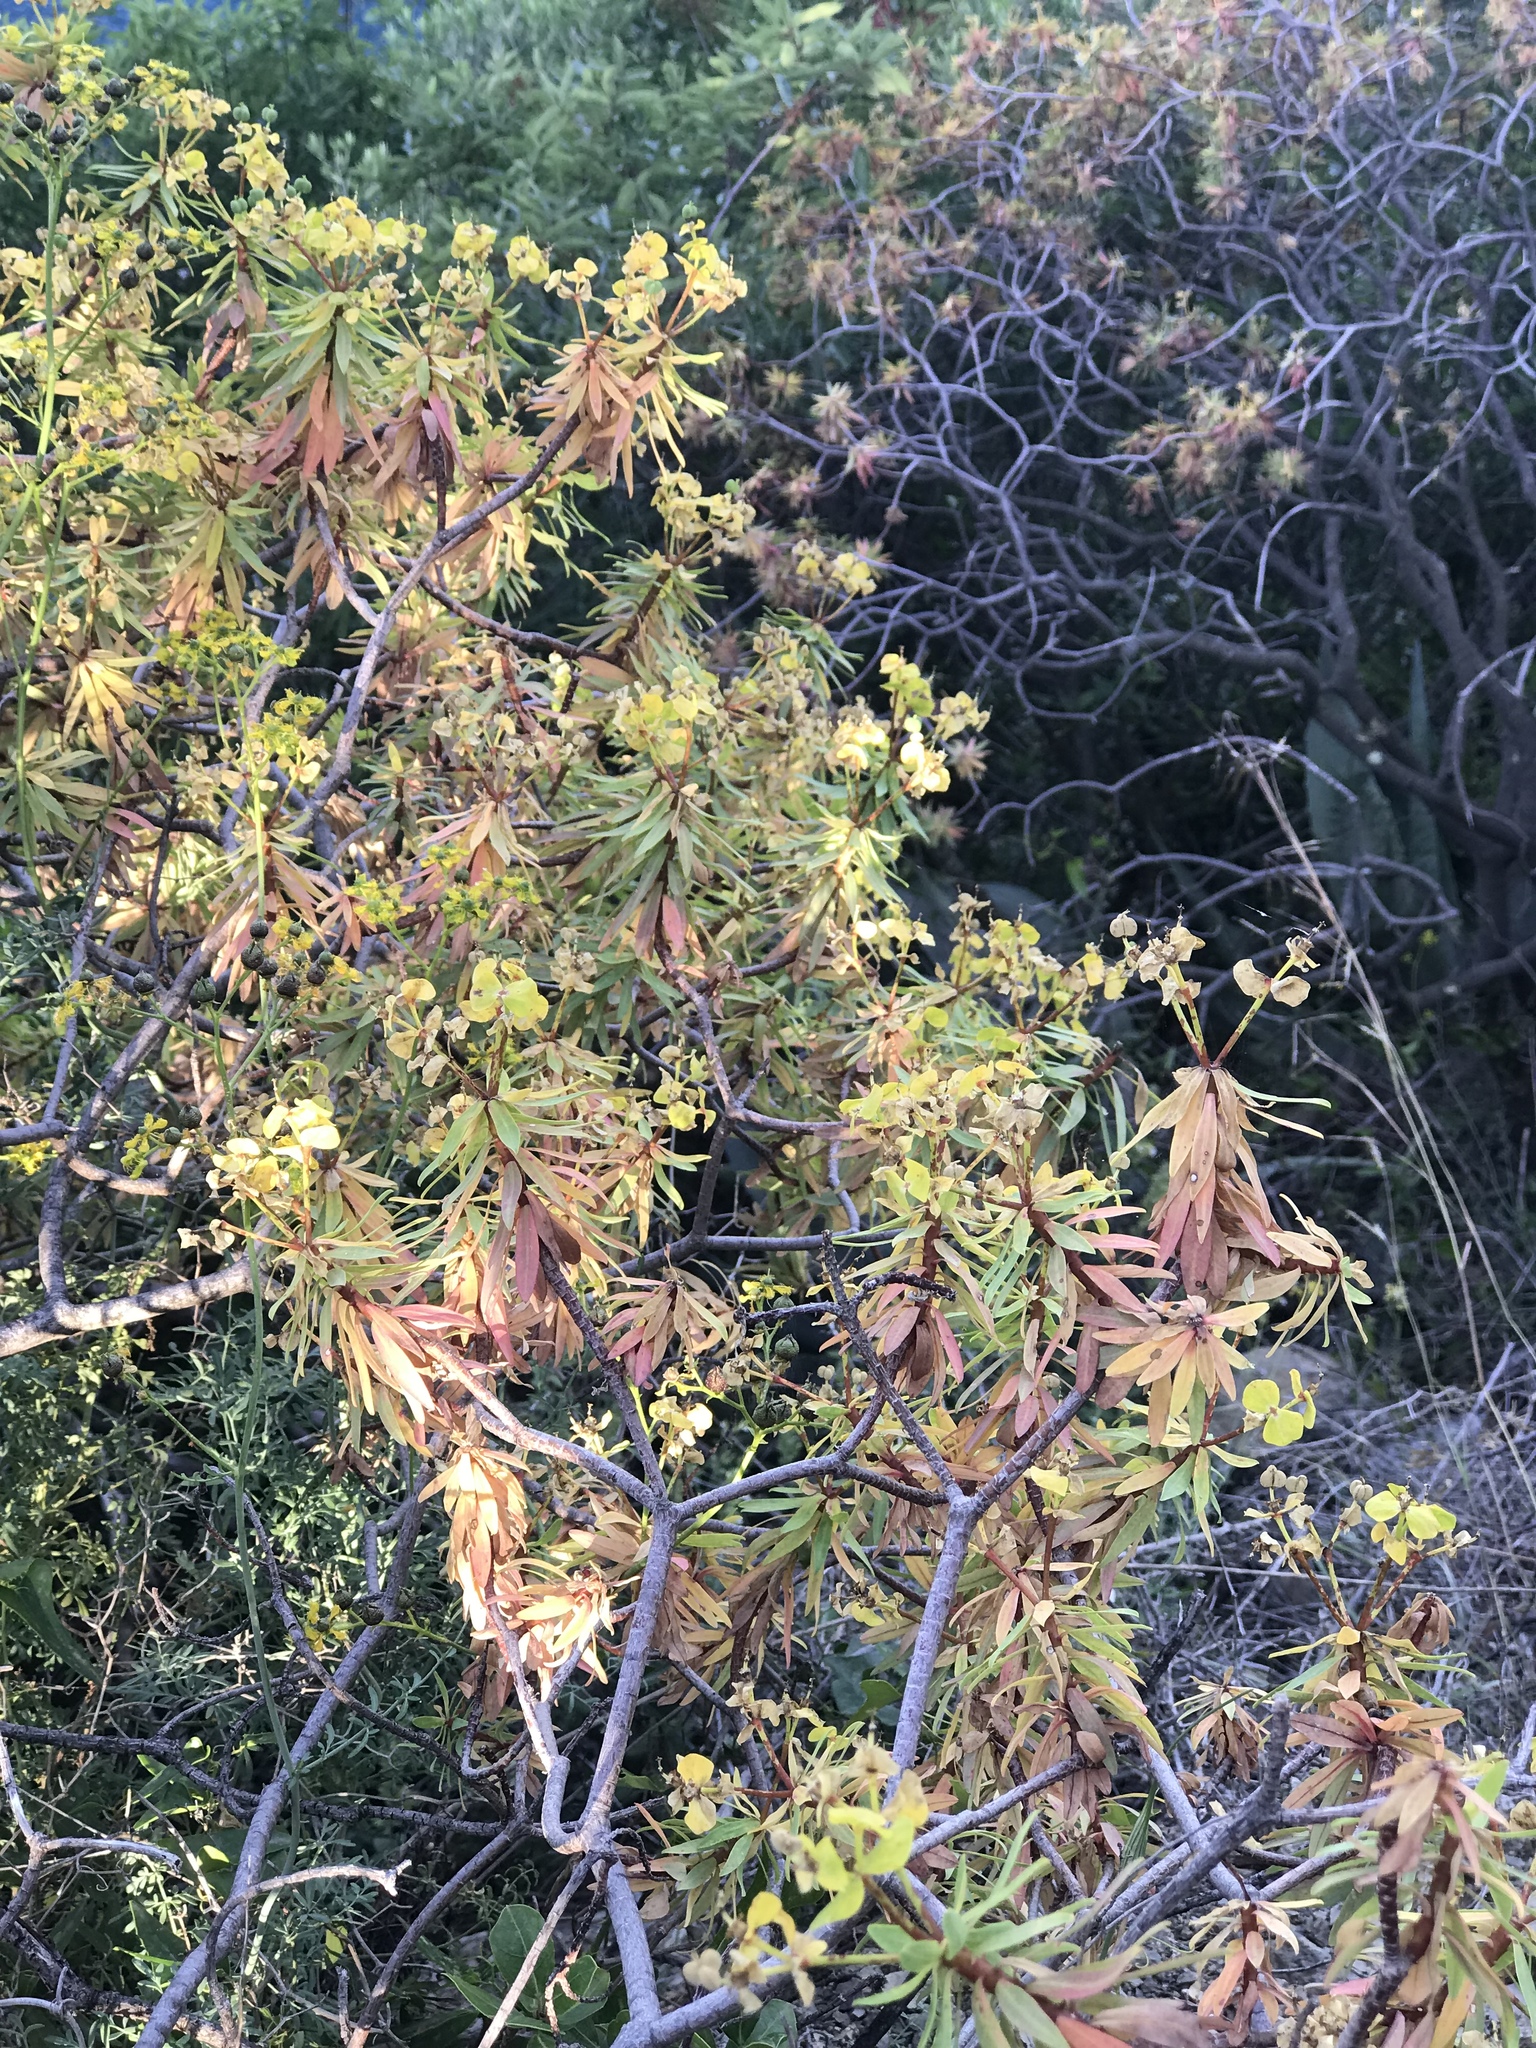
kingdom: Plantae
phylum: Tracheophyta
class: Magnoliopsida
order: Malpighiales
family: Euphorbiaceae
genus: Euphorbia
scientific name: Euphorbia dendroides
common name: Tree spurge
